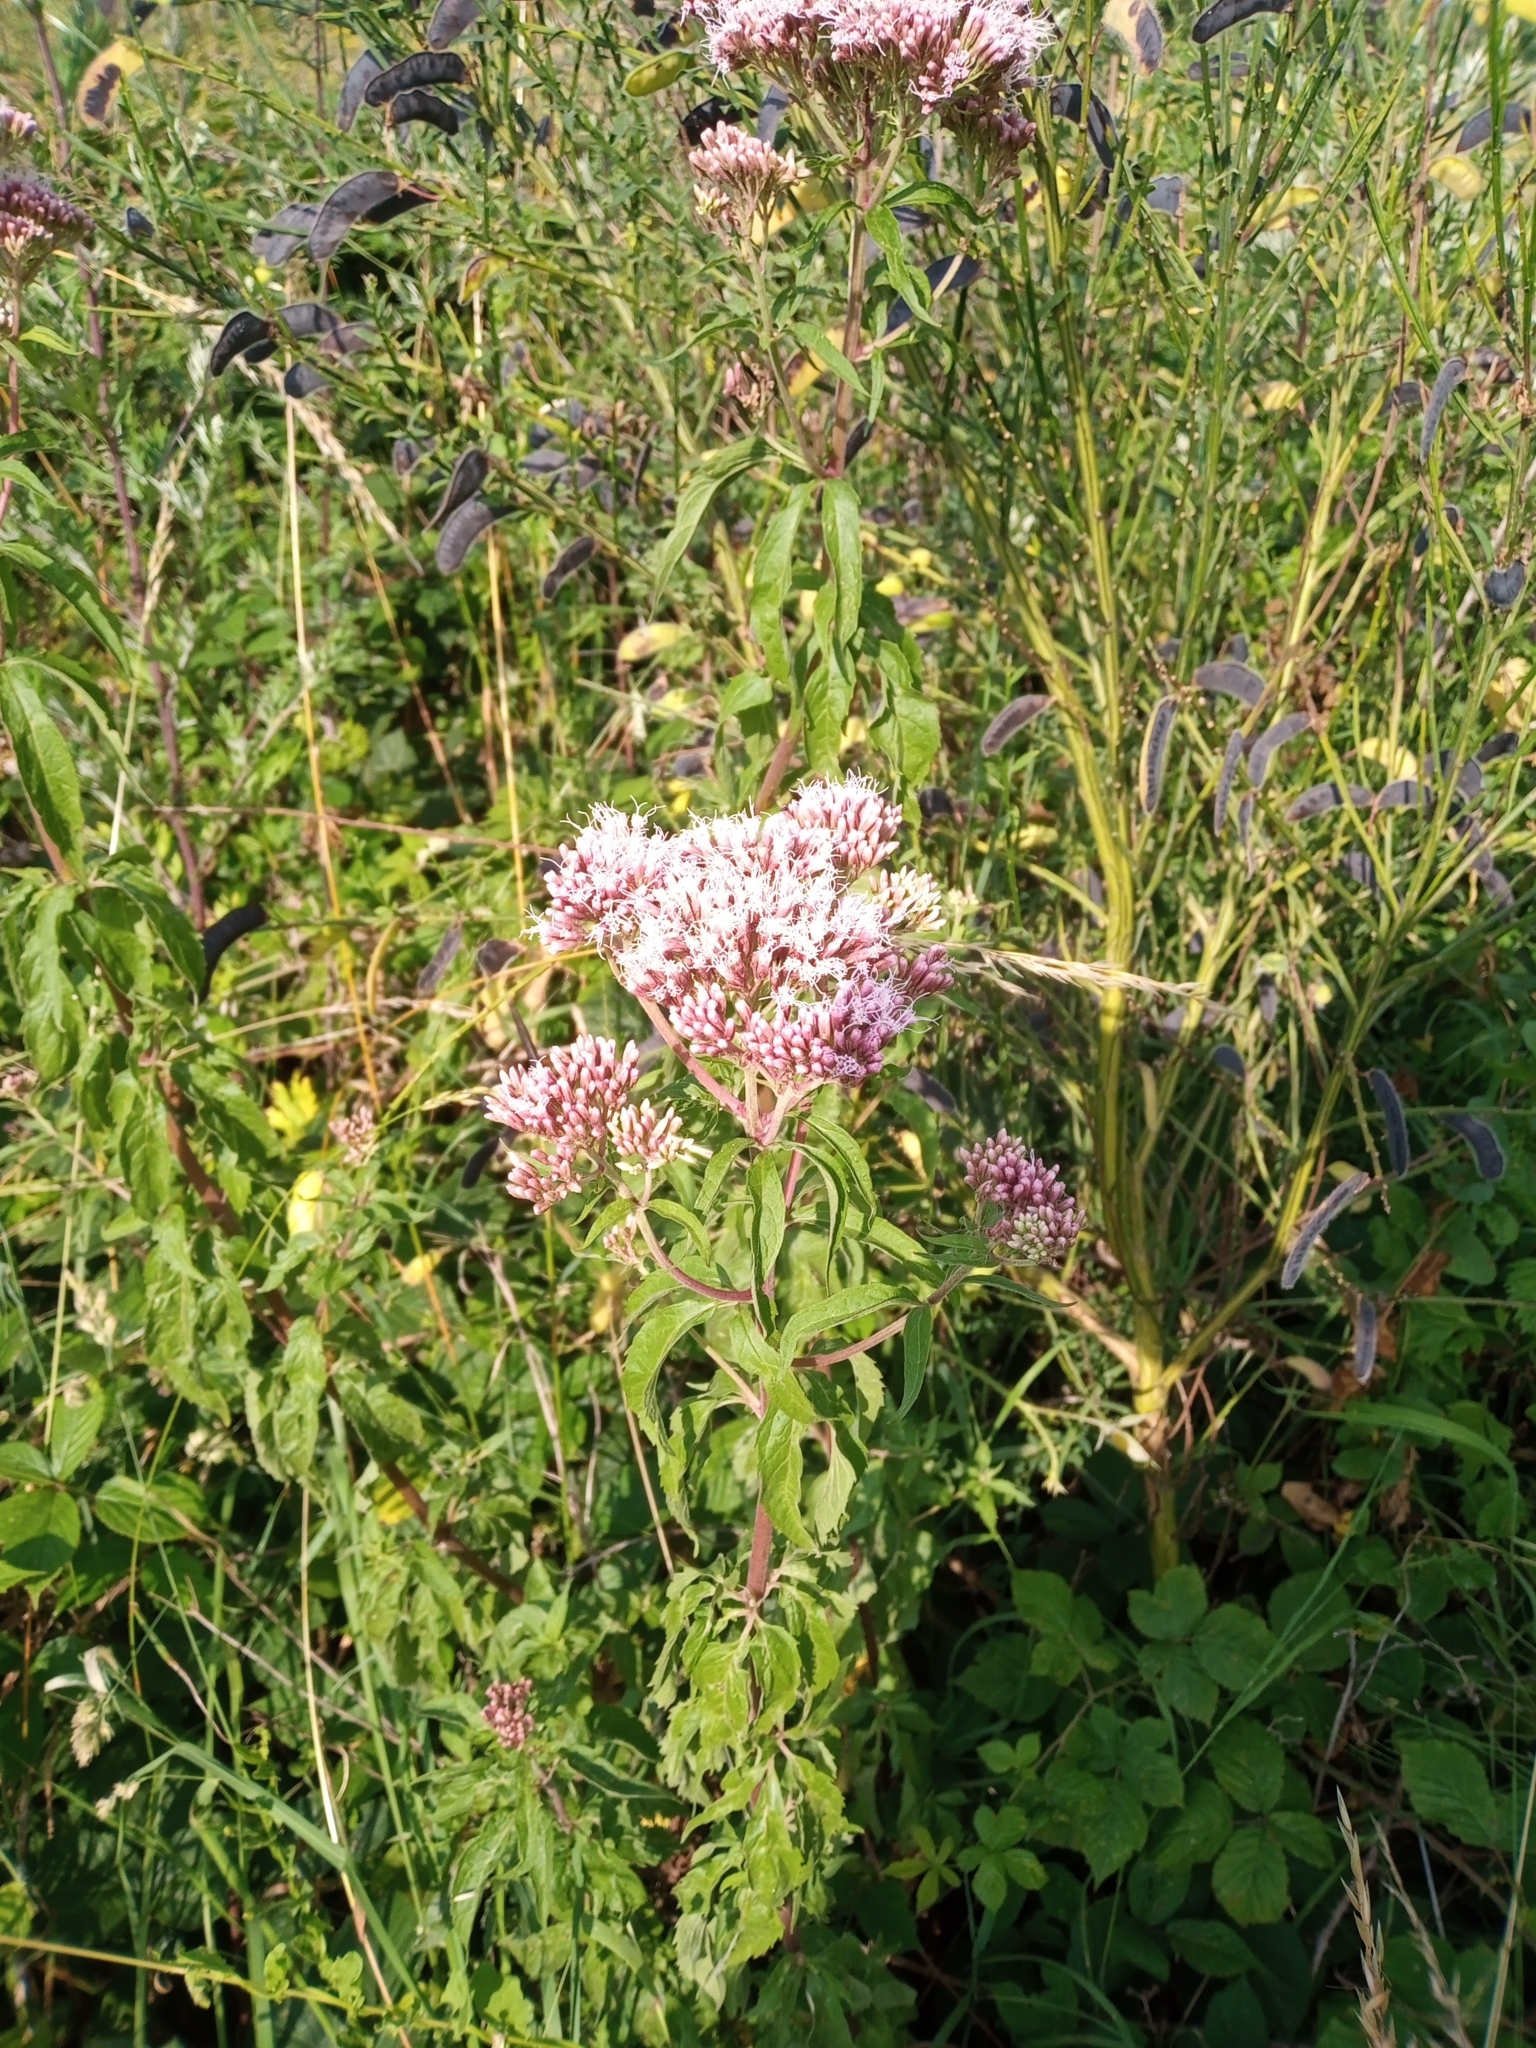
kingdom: Plantae
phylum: Tracheophyta
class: Magnoliopsida
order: Asterales
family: Asteraceae
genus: Eupatorium
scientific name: Eupatorium cannabinum
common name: Hemp-agrimony
